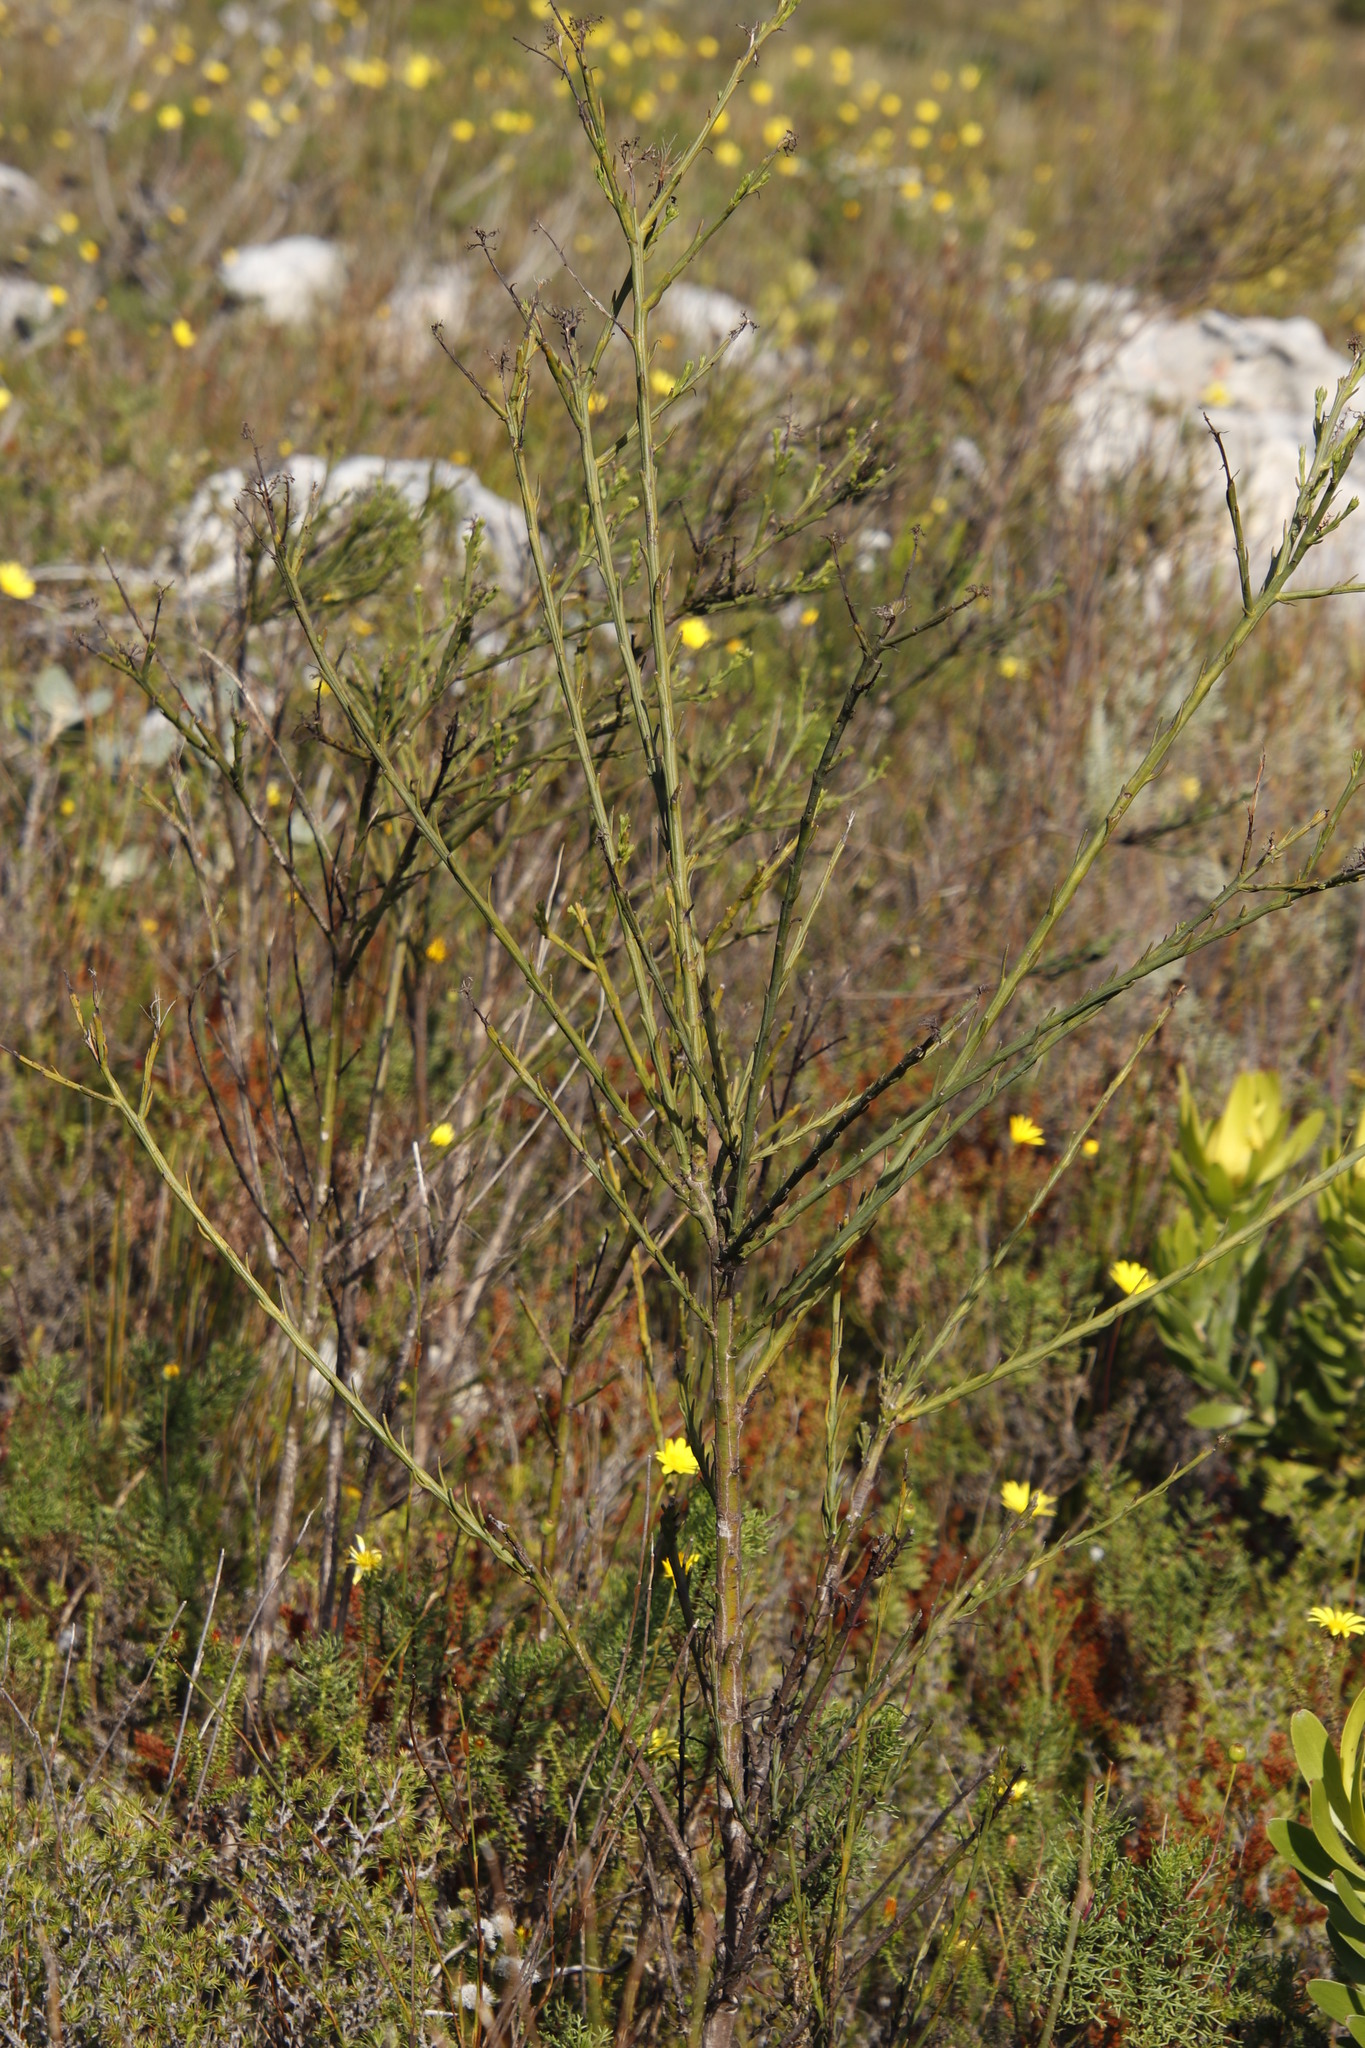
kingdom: Plantae
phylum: Tracheophyta
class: Magnoliopsida
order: Santalales
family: Thesiaceae
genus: Thesium
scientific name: Thesium strictum
